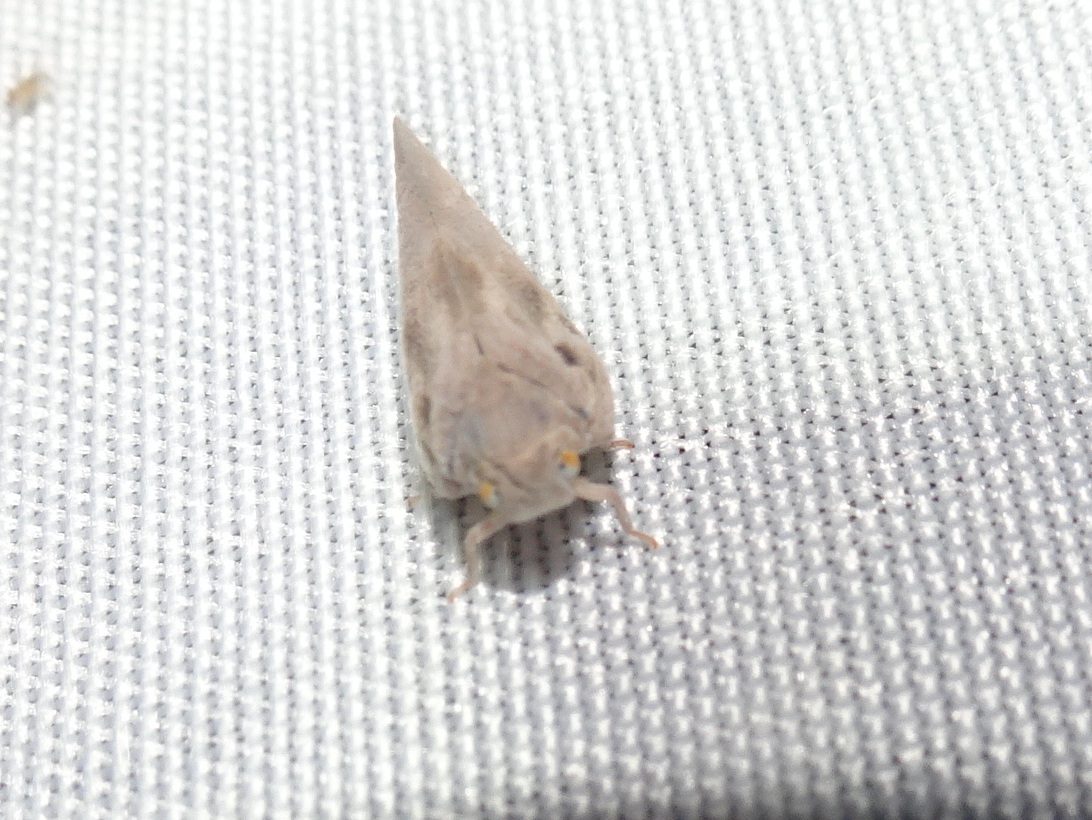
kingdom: Animalia
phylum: Arthropoda
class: Insecta
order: Hemiptera
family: Flatidae
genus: Metcalfa
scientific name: Metcalfa pruinosa
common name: Citrus flatid planthopper
